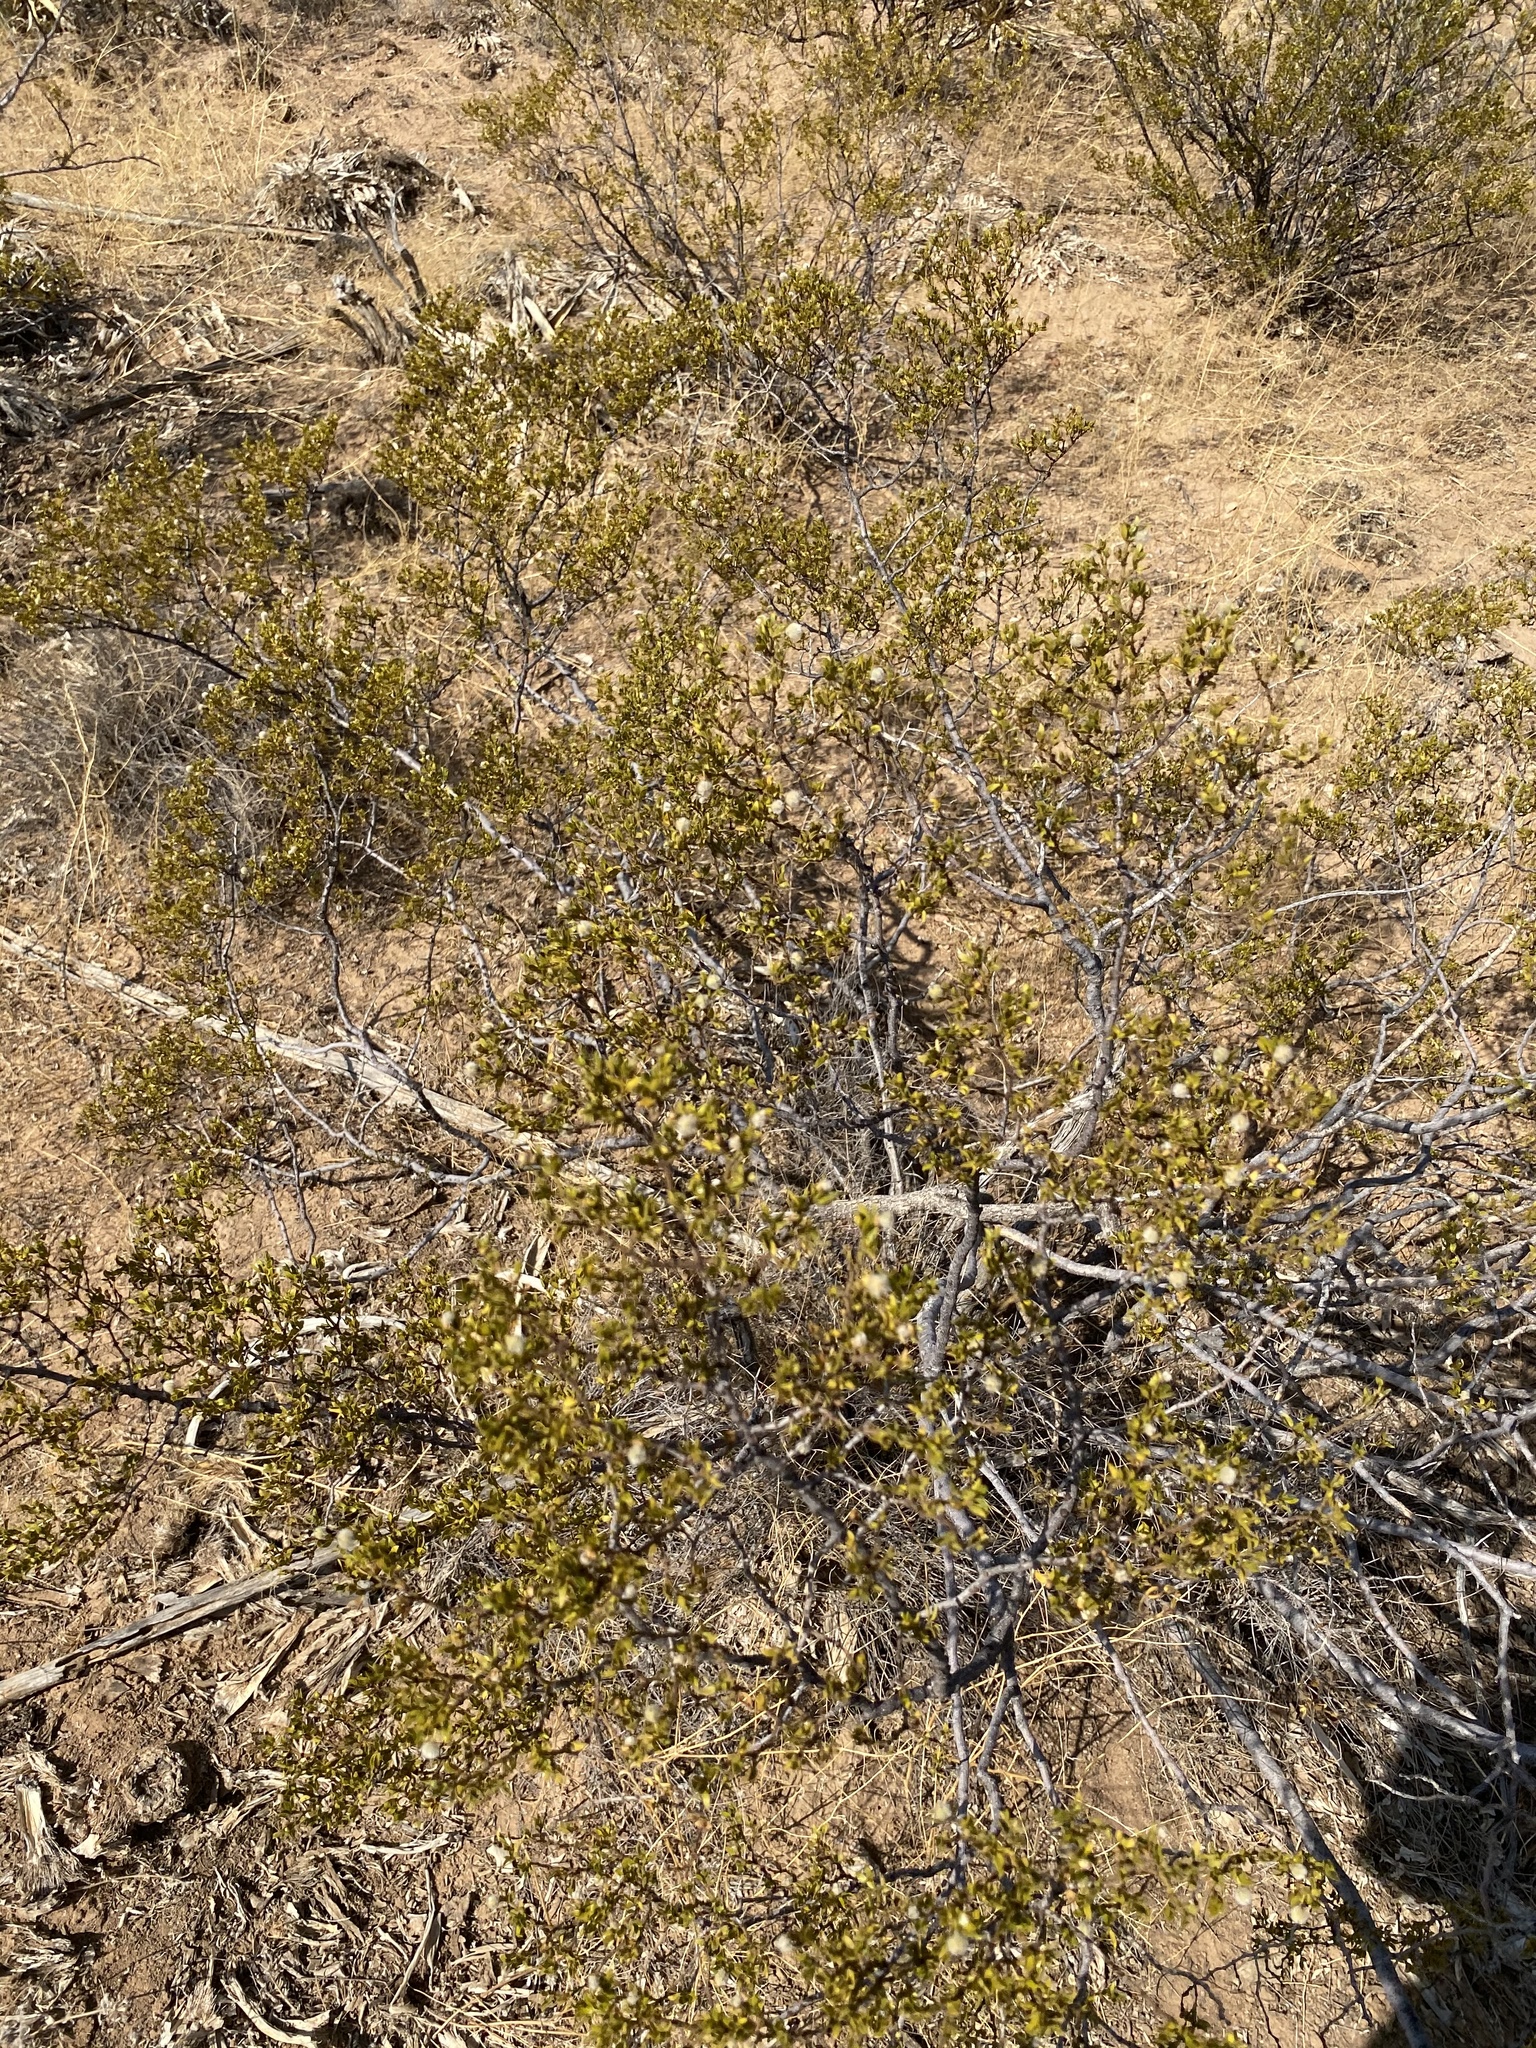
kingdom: Plantae
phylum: Tracheophyta
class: Magnoliopsida
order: Zygophyllales
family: Zygophyllaceae
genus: Larrea
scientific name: Larrea tridentata
